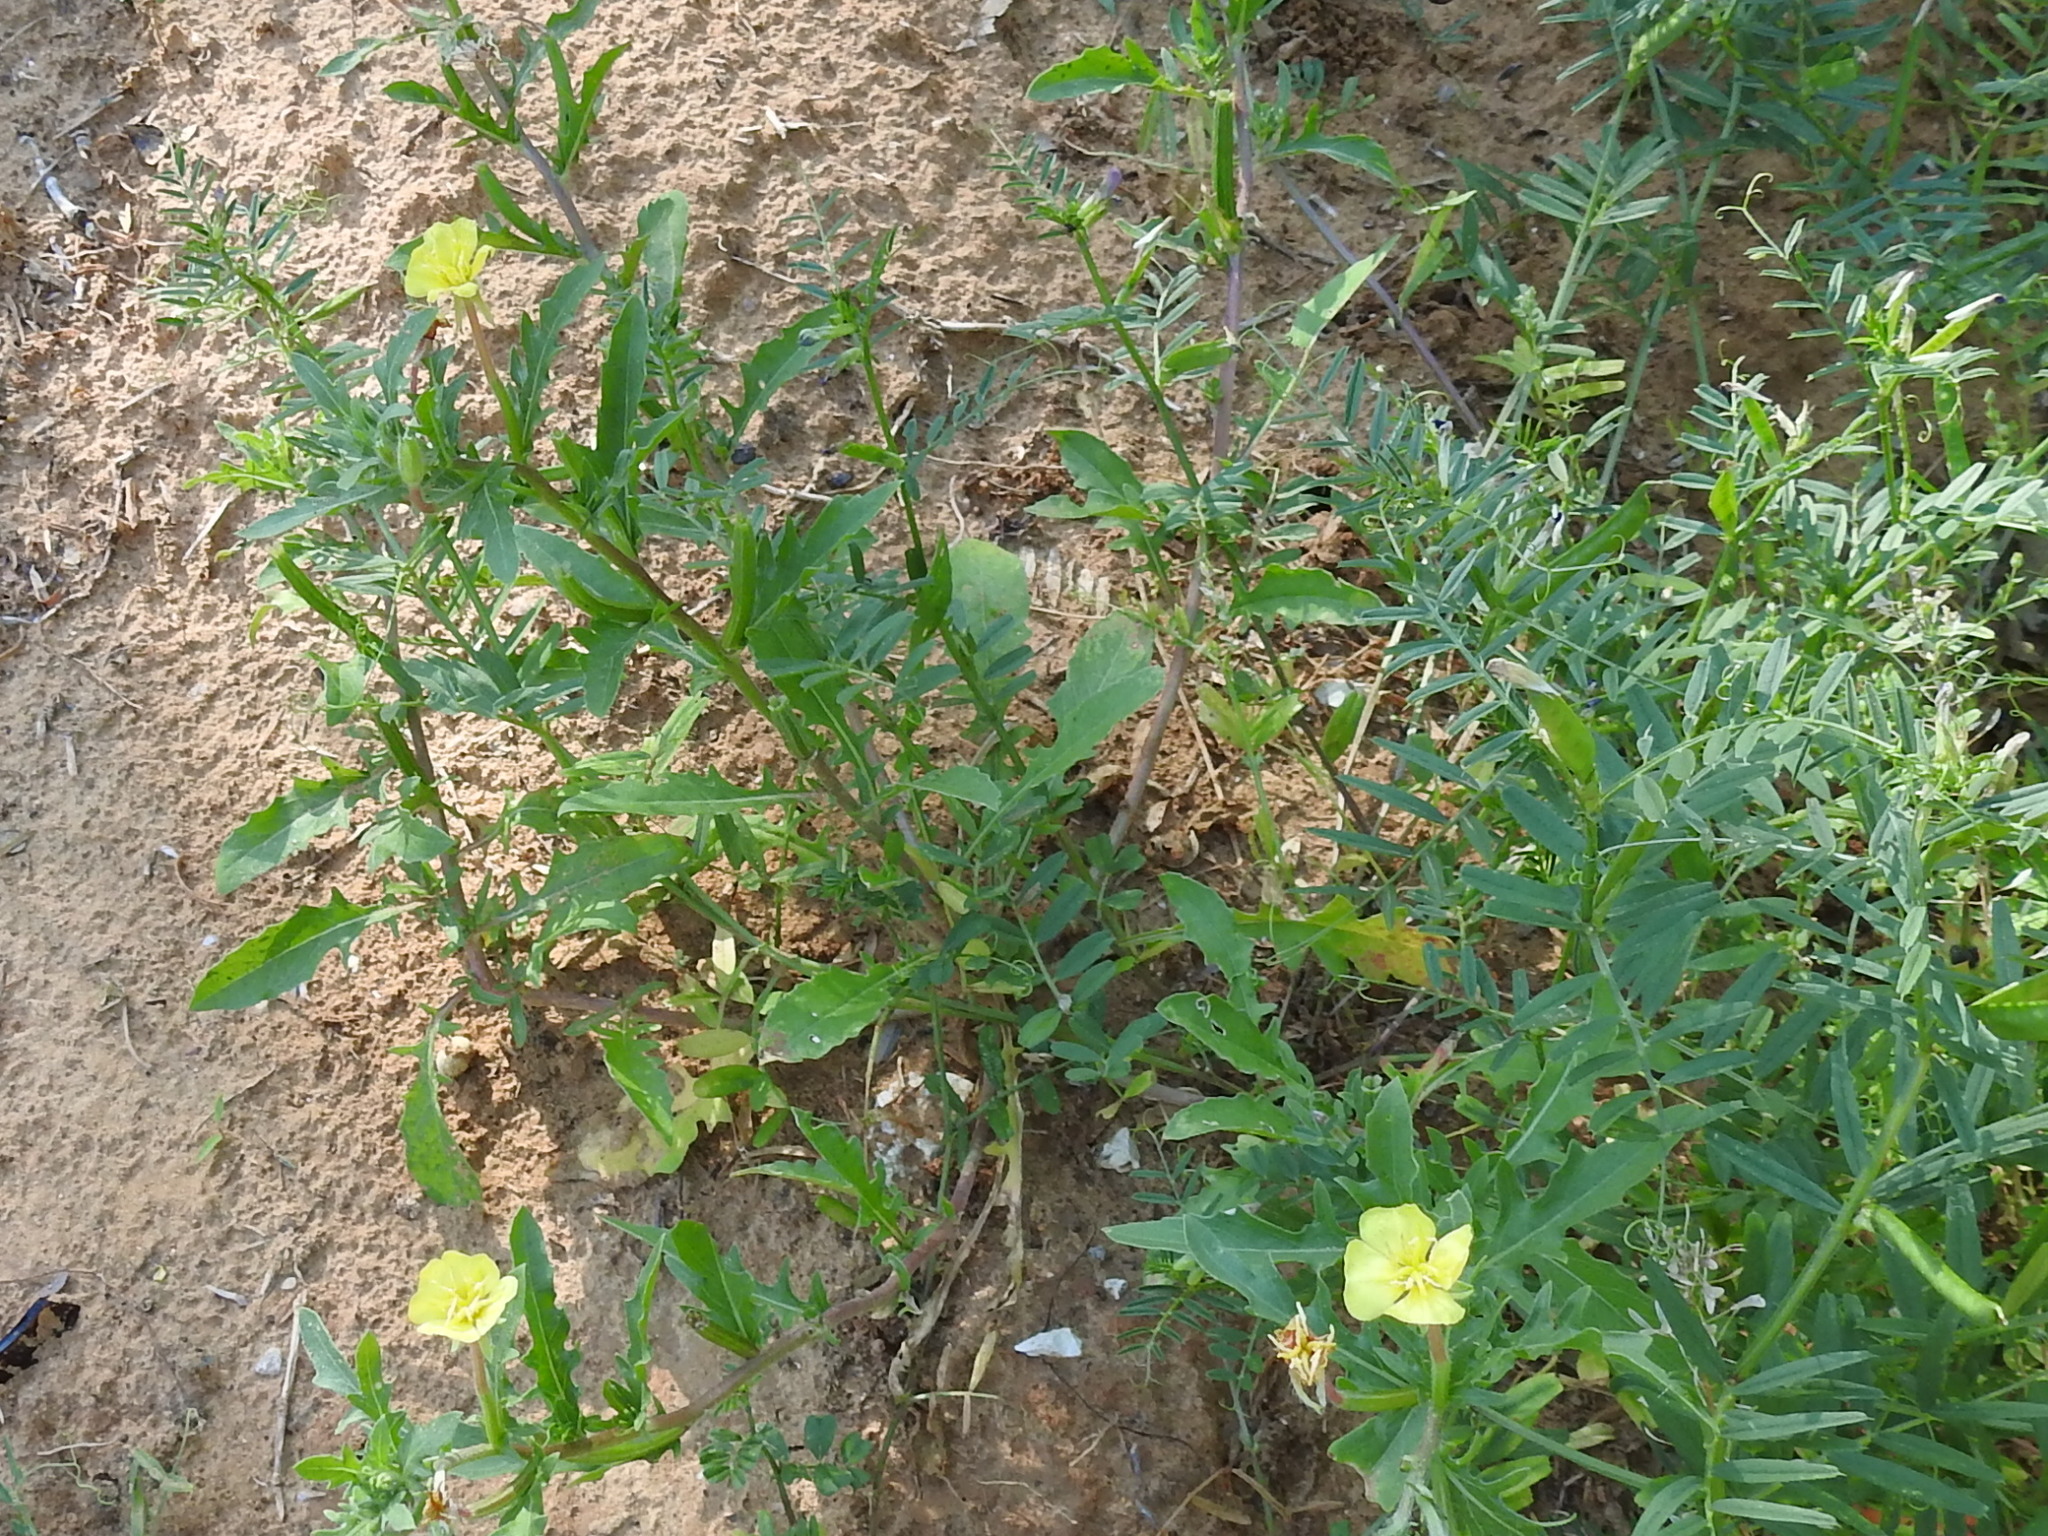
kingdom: Plantae
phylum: Tracheophyta
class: Magnoliopsida
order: Myrtales
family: Onagraceae
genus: Oenothera
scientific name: Oenothera laciniata
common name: Cut-leaved evening-primrose
